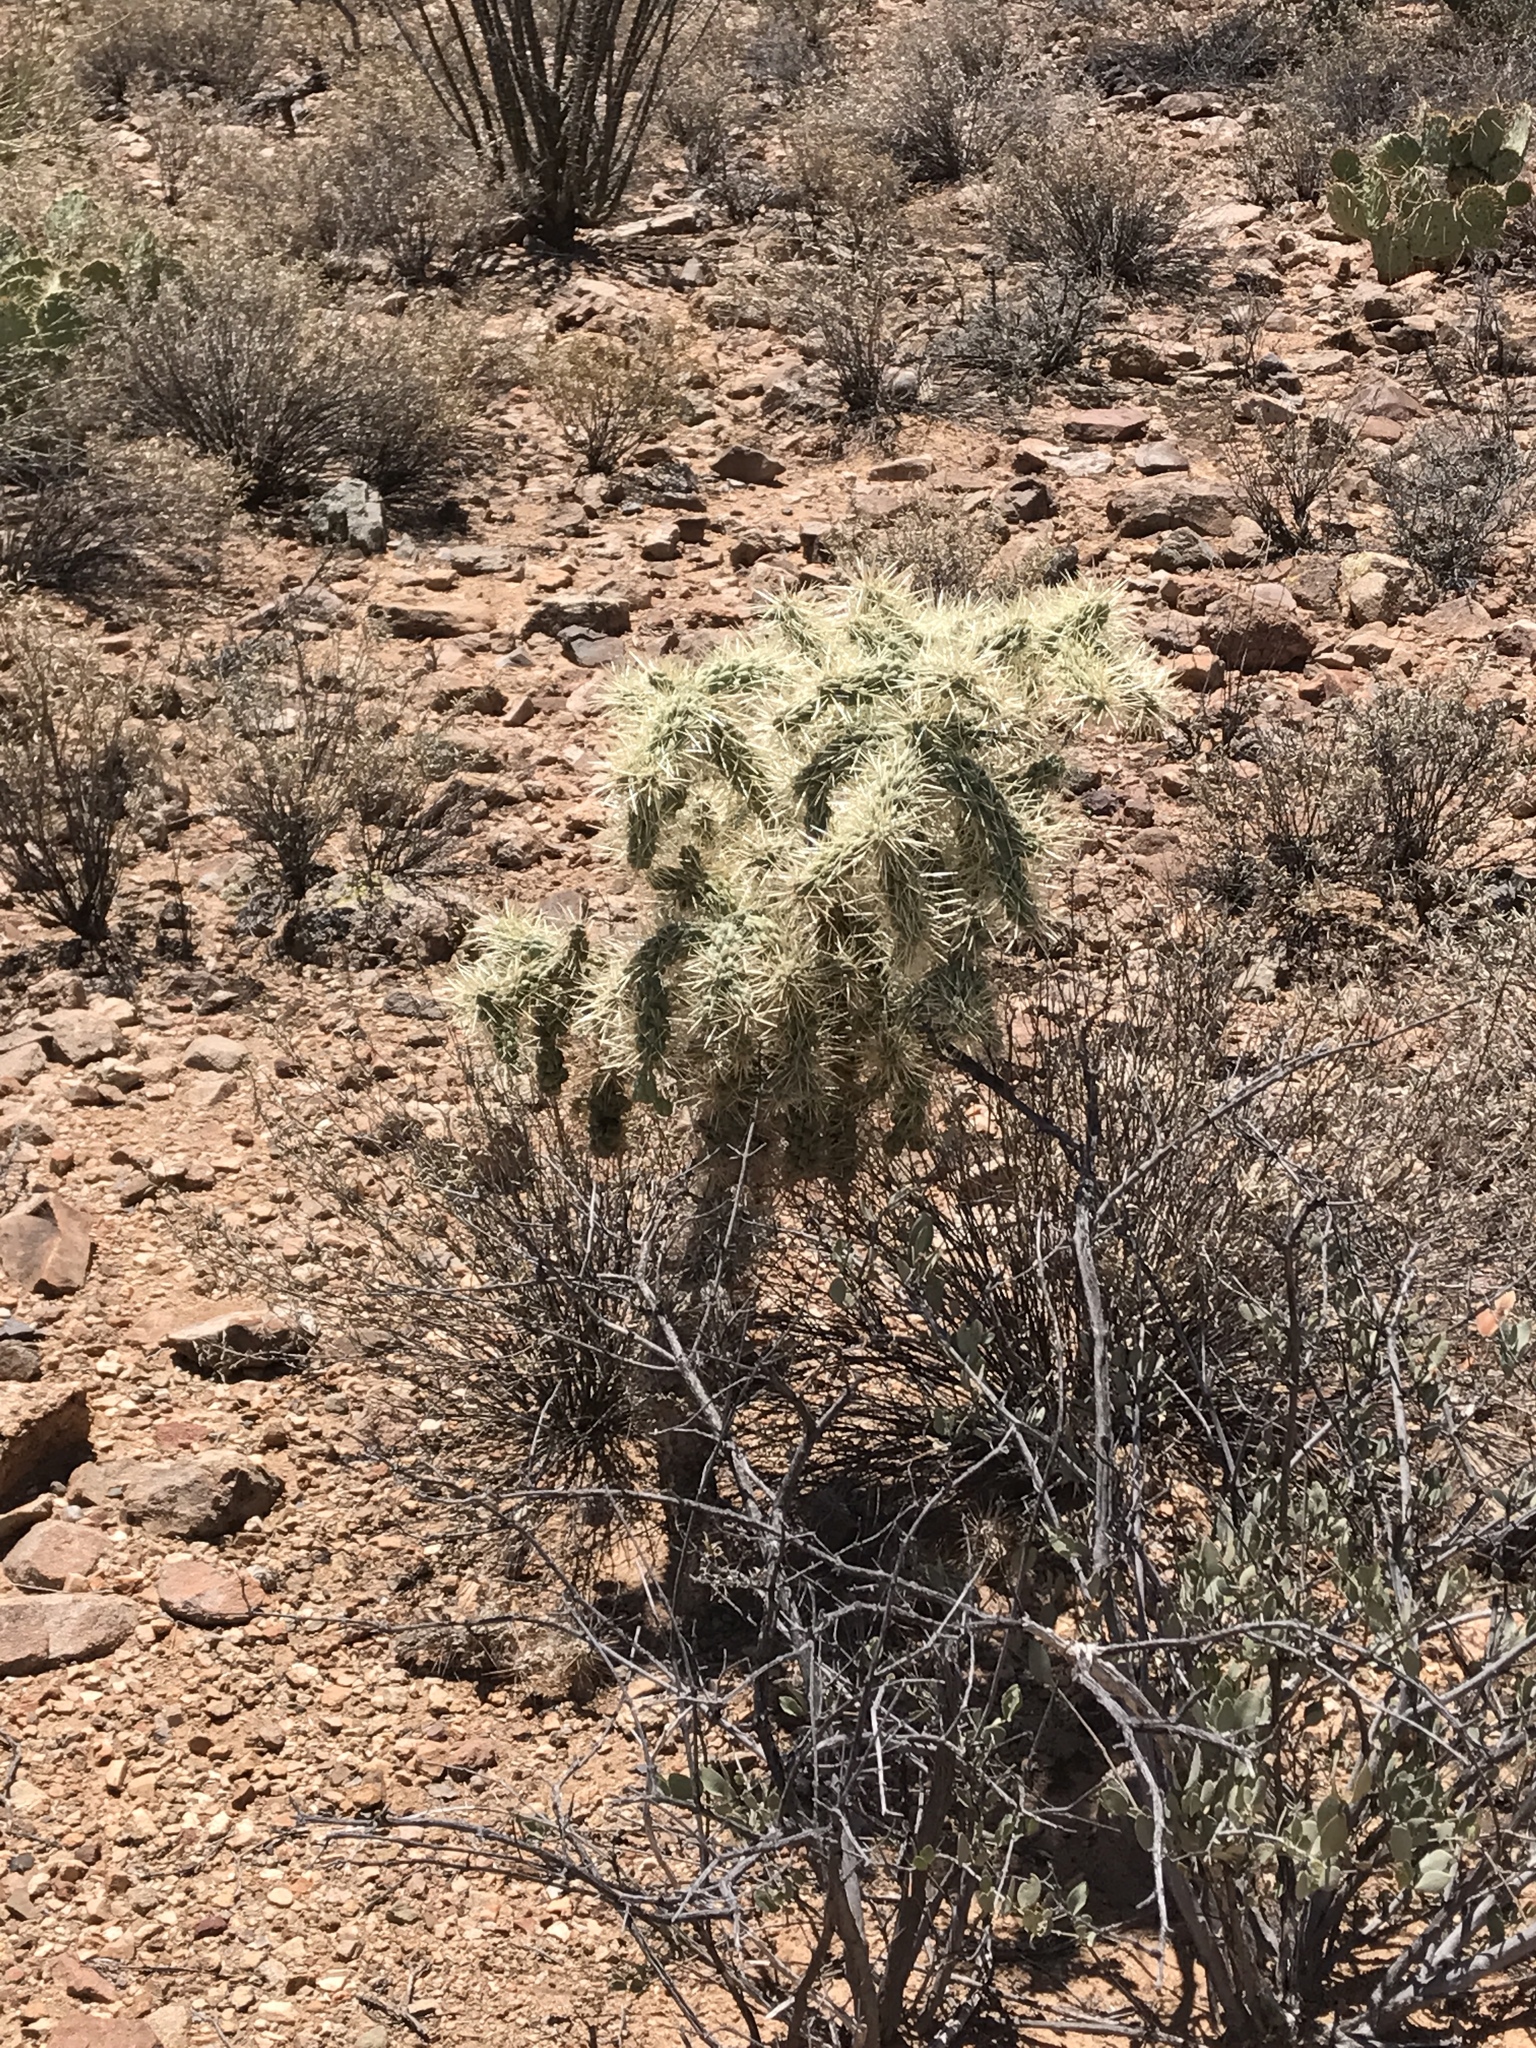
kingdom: Plantae
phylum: Tracheophyta
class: Magnoliopsida
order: Caryophyllales
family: Cactaceae
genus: Cylindropuntia
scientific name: Cylindropuntia fulgida
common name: Jumping cholla
